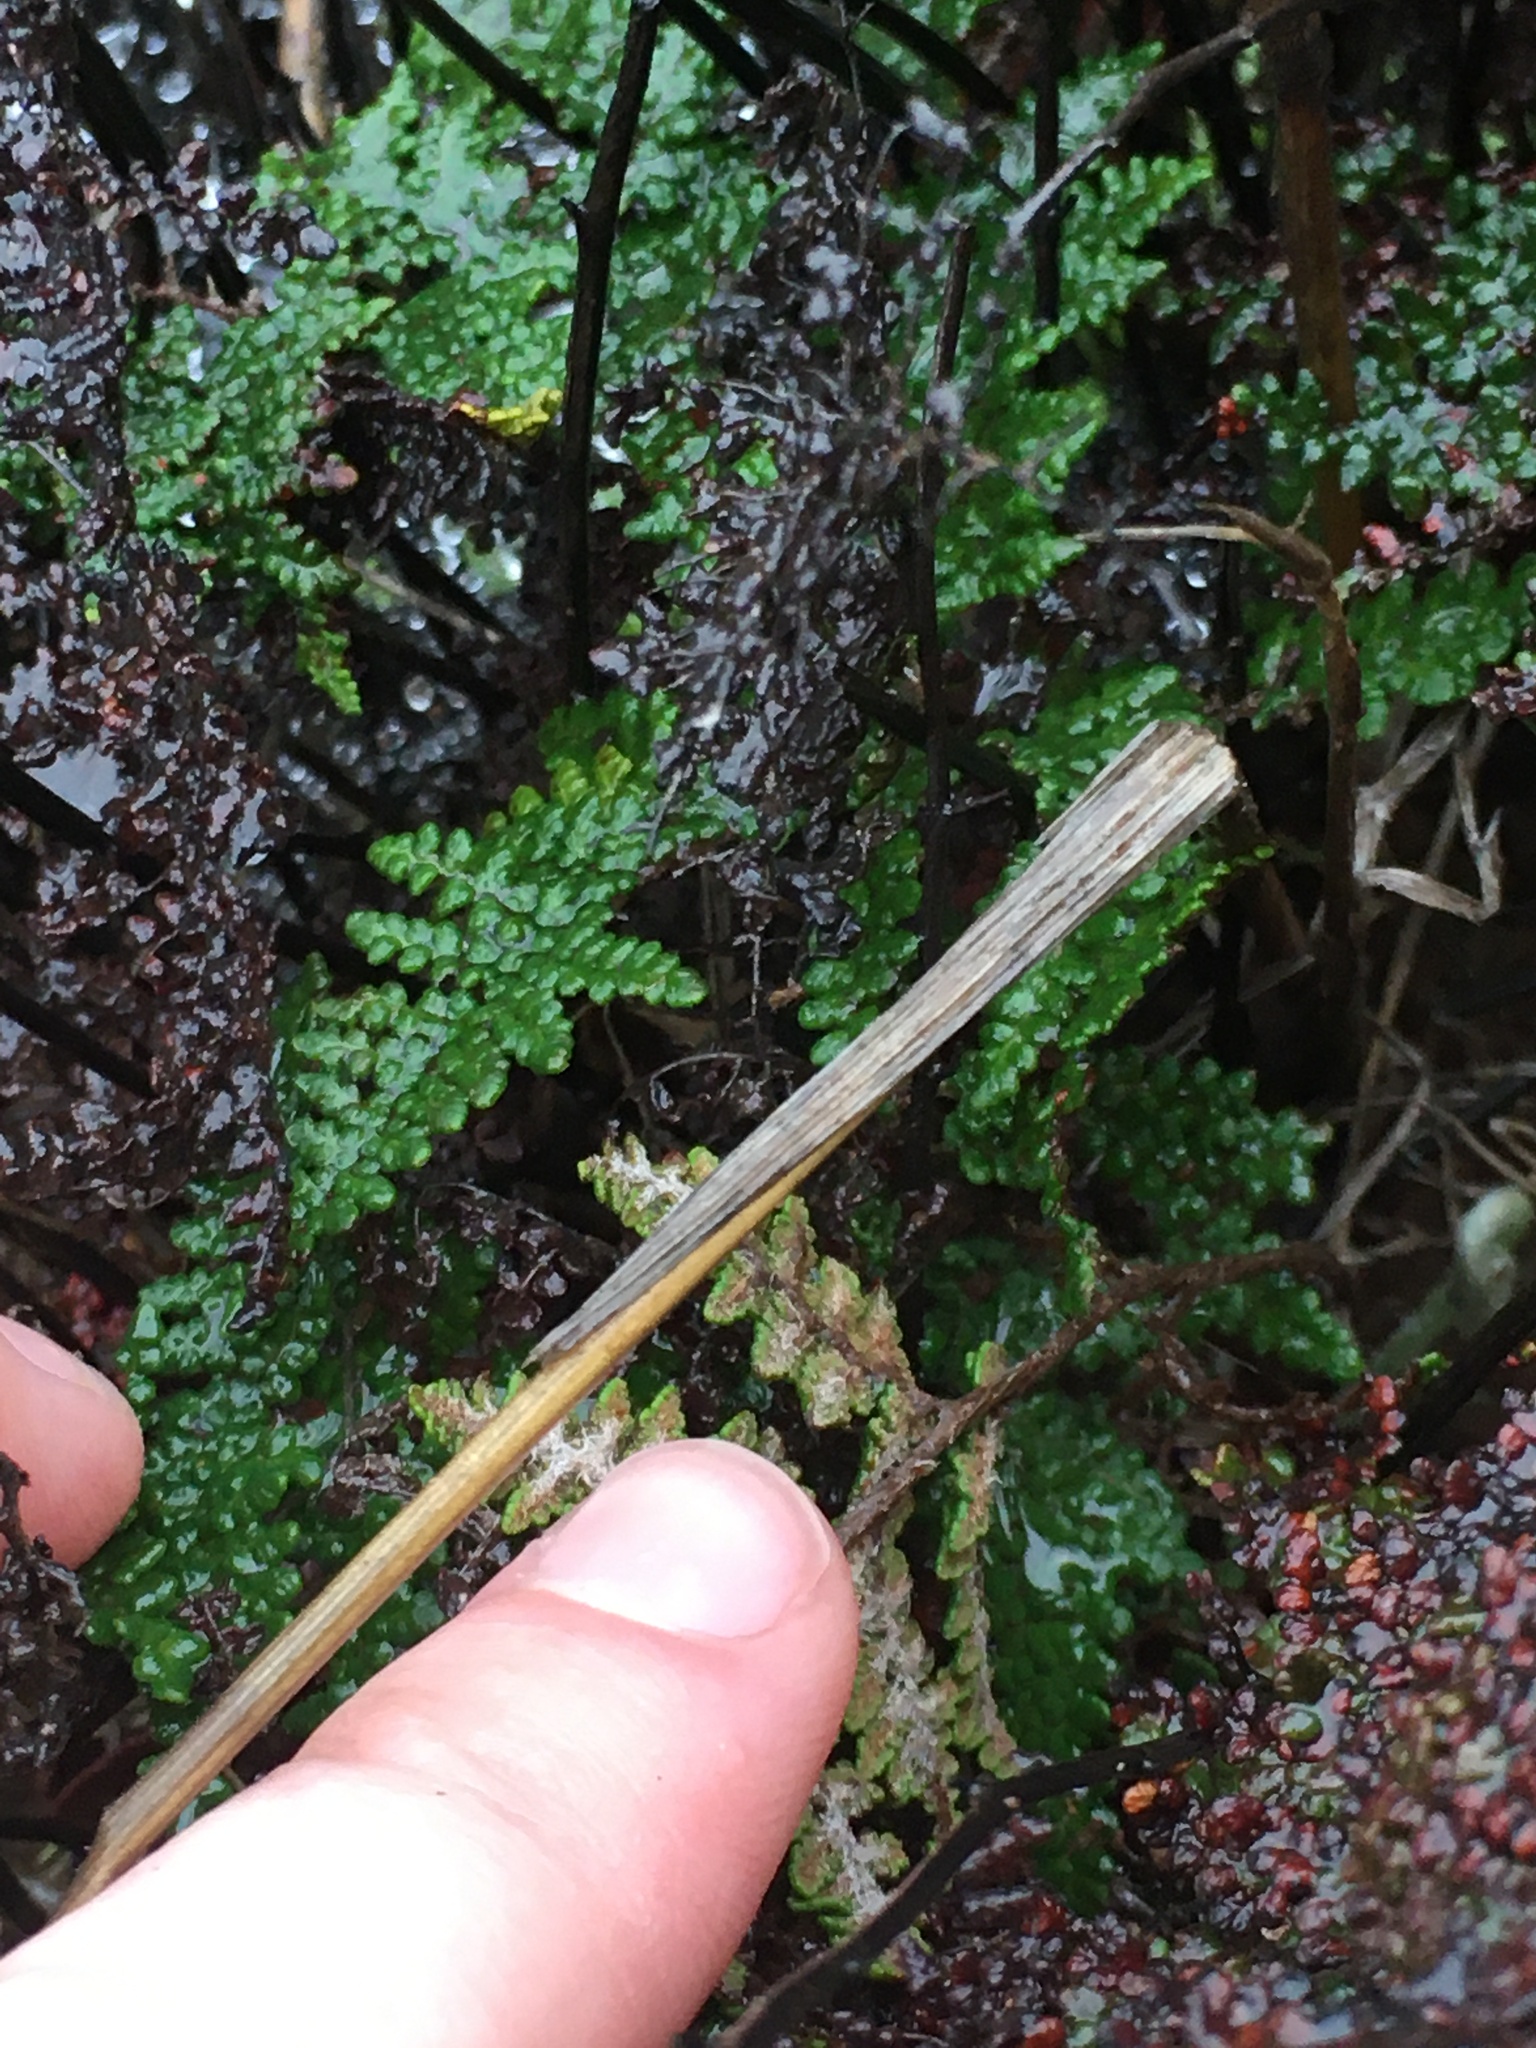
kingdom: Plantae
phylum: Tracheophyta
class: Polypodiopsida
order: Polypodiales
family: Pteridaceae
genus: Myriopteris
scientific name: Myriopteris clevelandii
